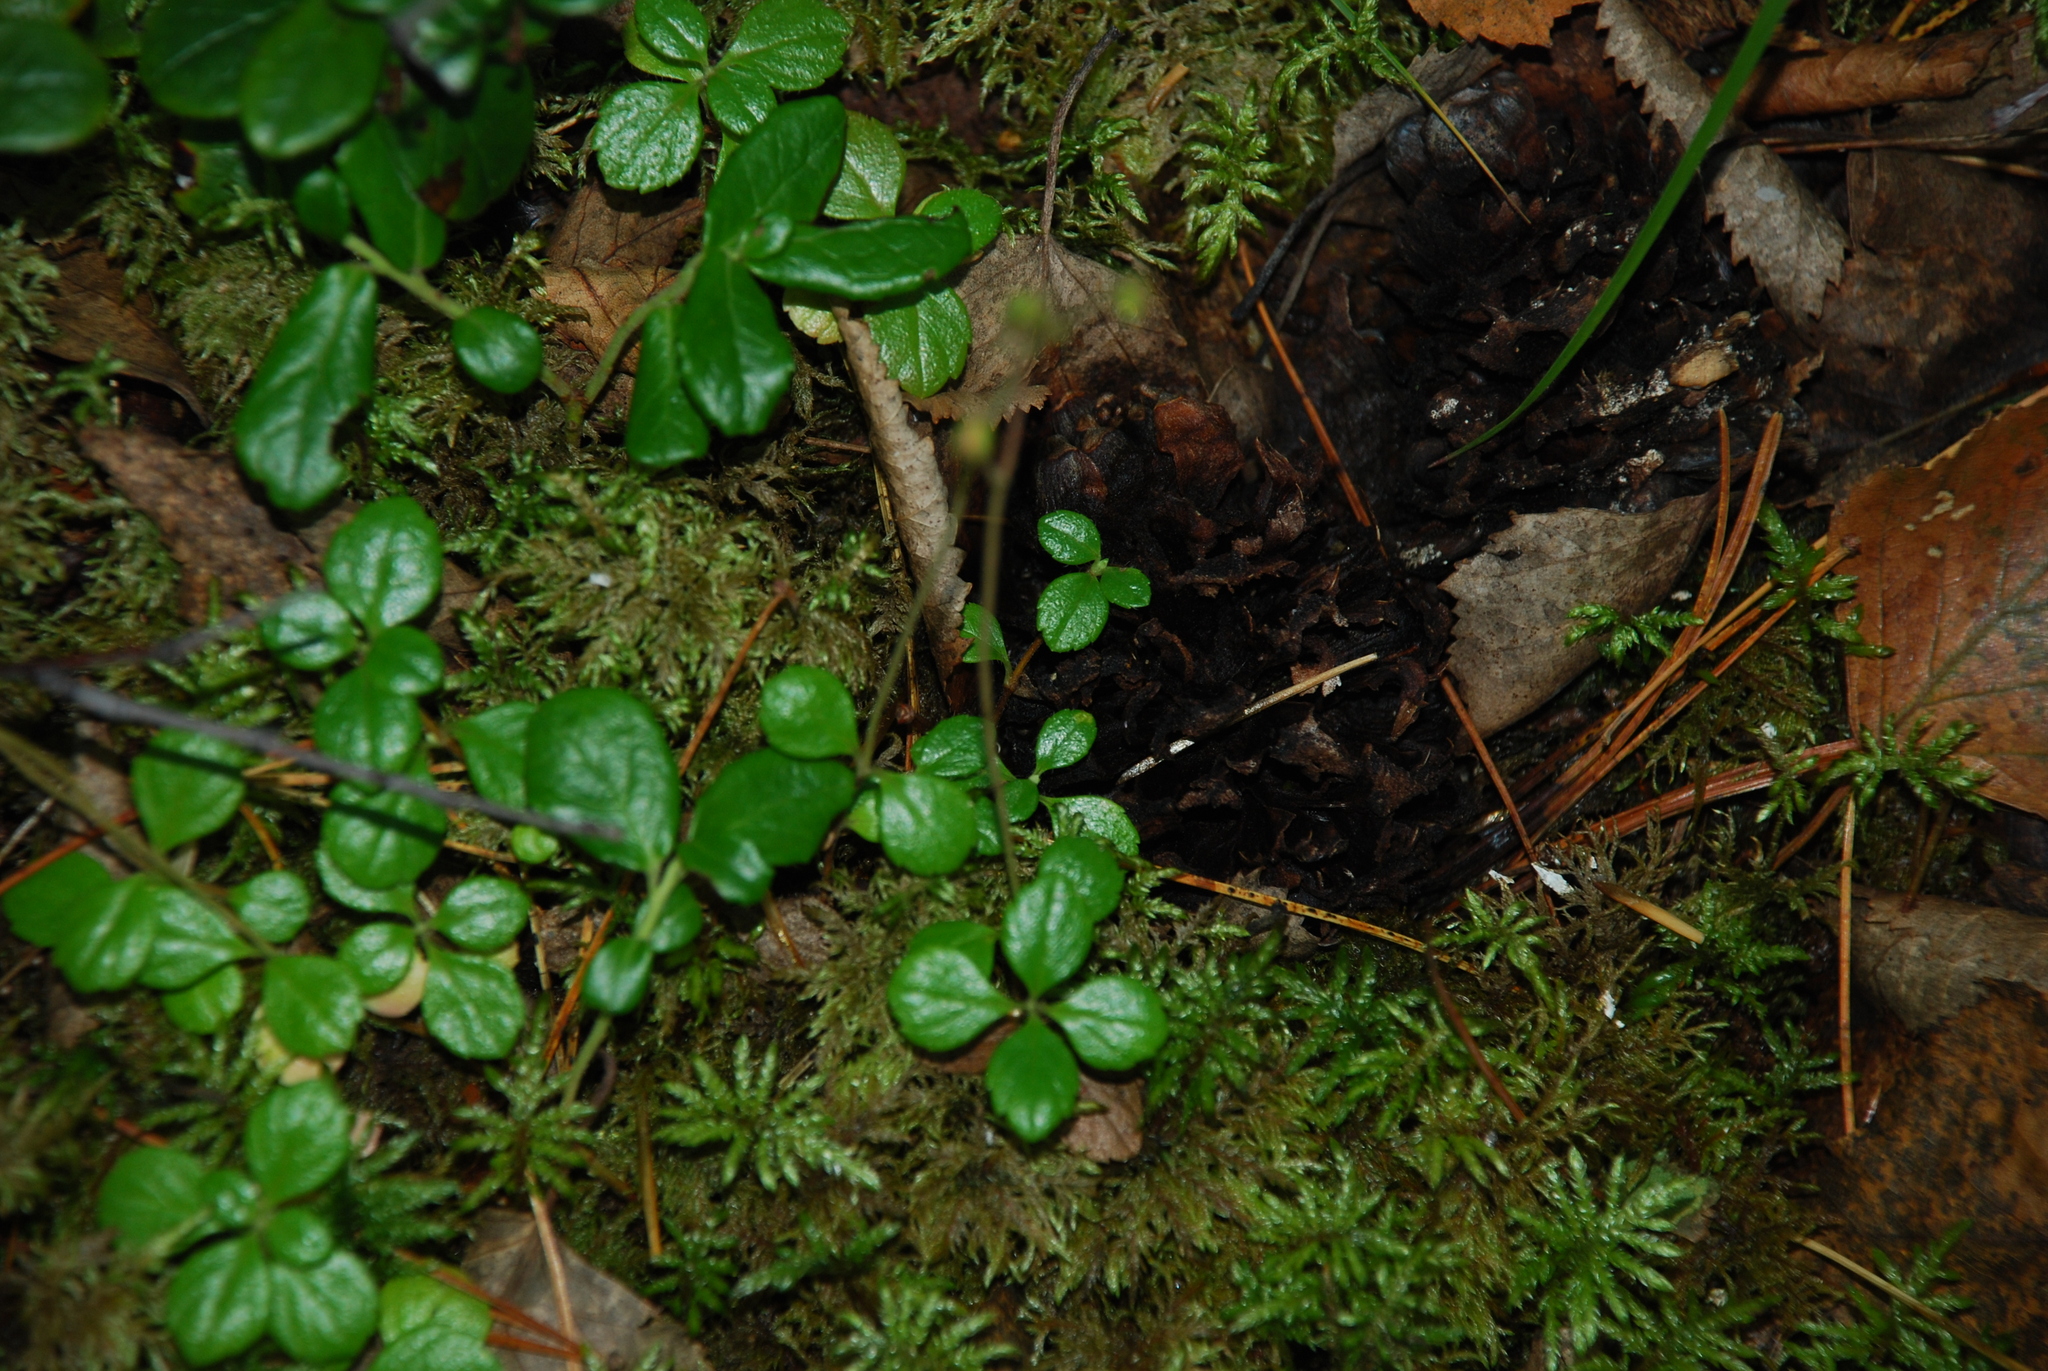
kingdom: Plantae
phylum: Tracheophyta
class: Magnoliopsida
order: Dipsacales
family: Caprifoliaceae
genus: Linnaea
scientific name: Linnaea borealis
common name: Twinflower
